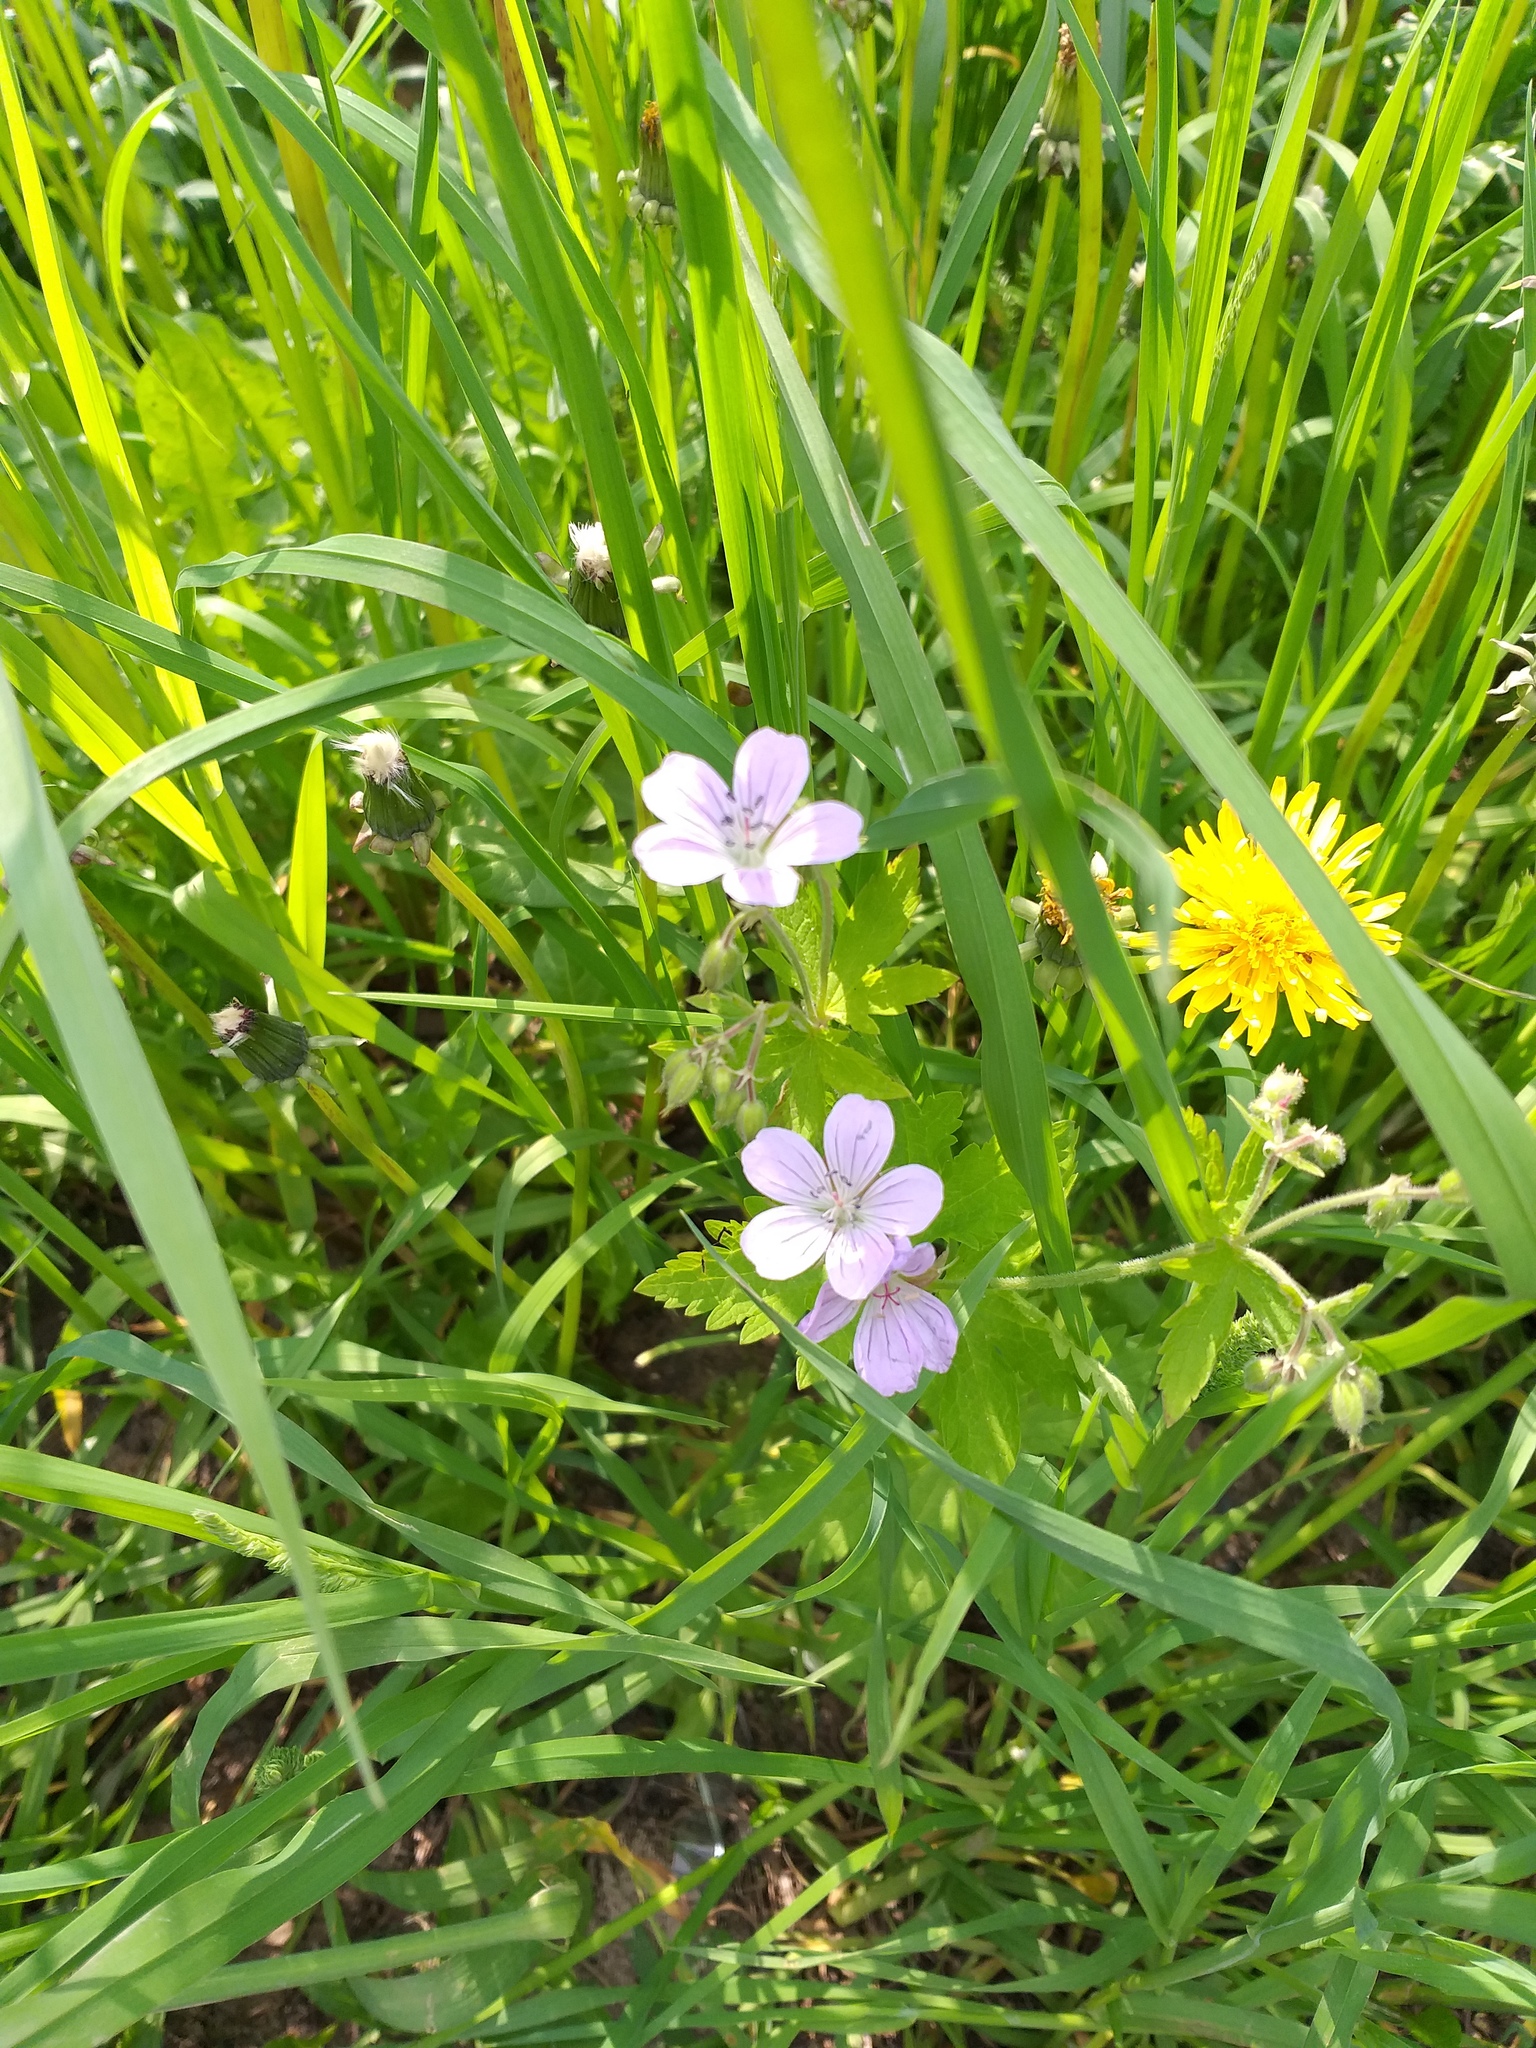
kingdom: Plantae
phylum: Tracheophyta
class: Magnoliopsida
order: Geraniales
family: Geraniaceae
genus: Geranium
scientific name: Geranium sylvaticum
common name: Wood crane's-bill
